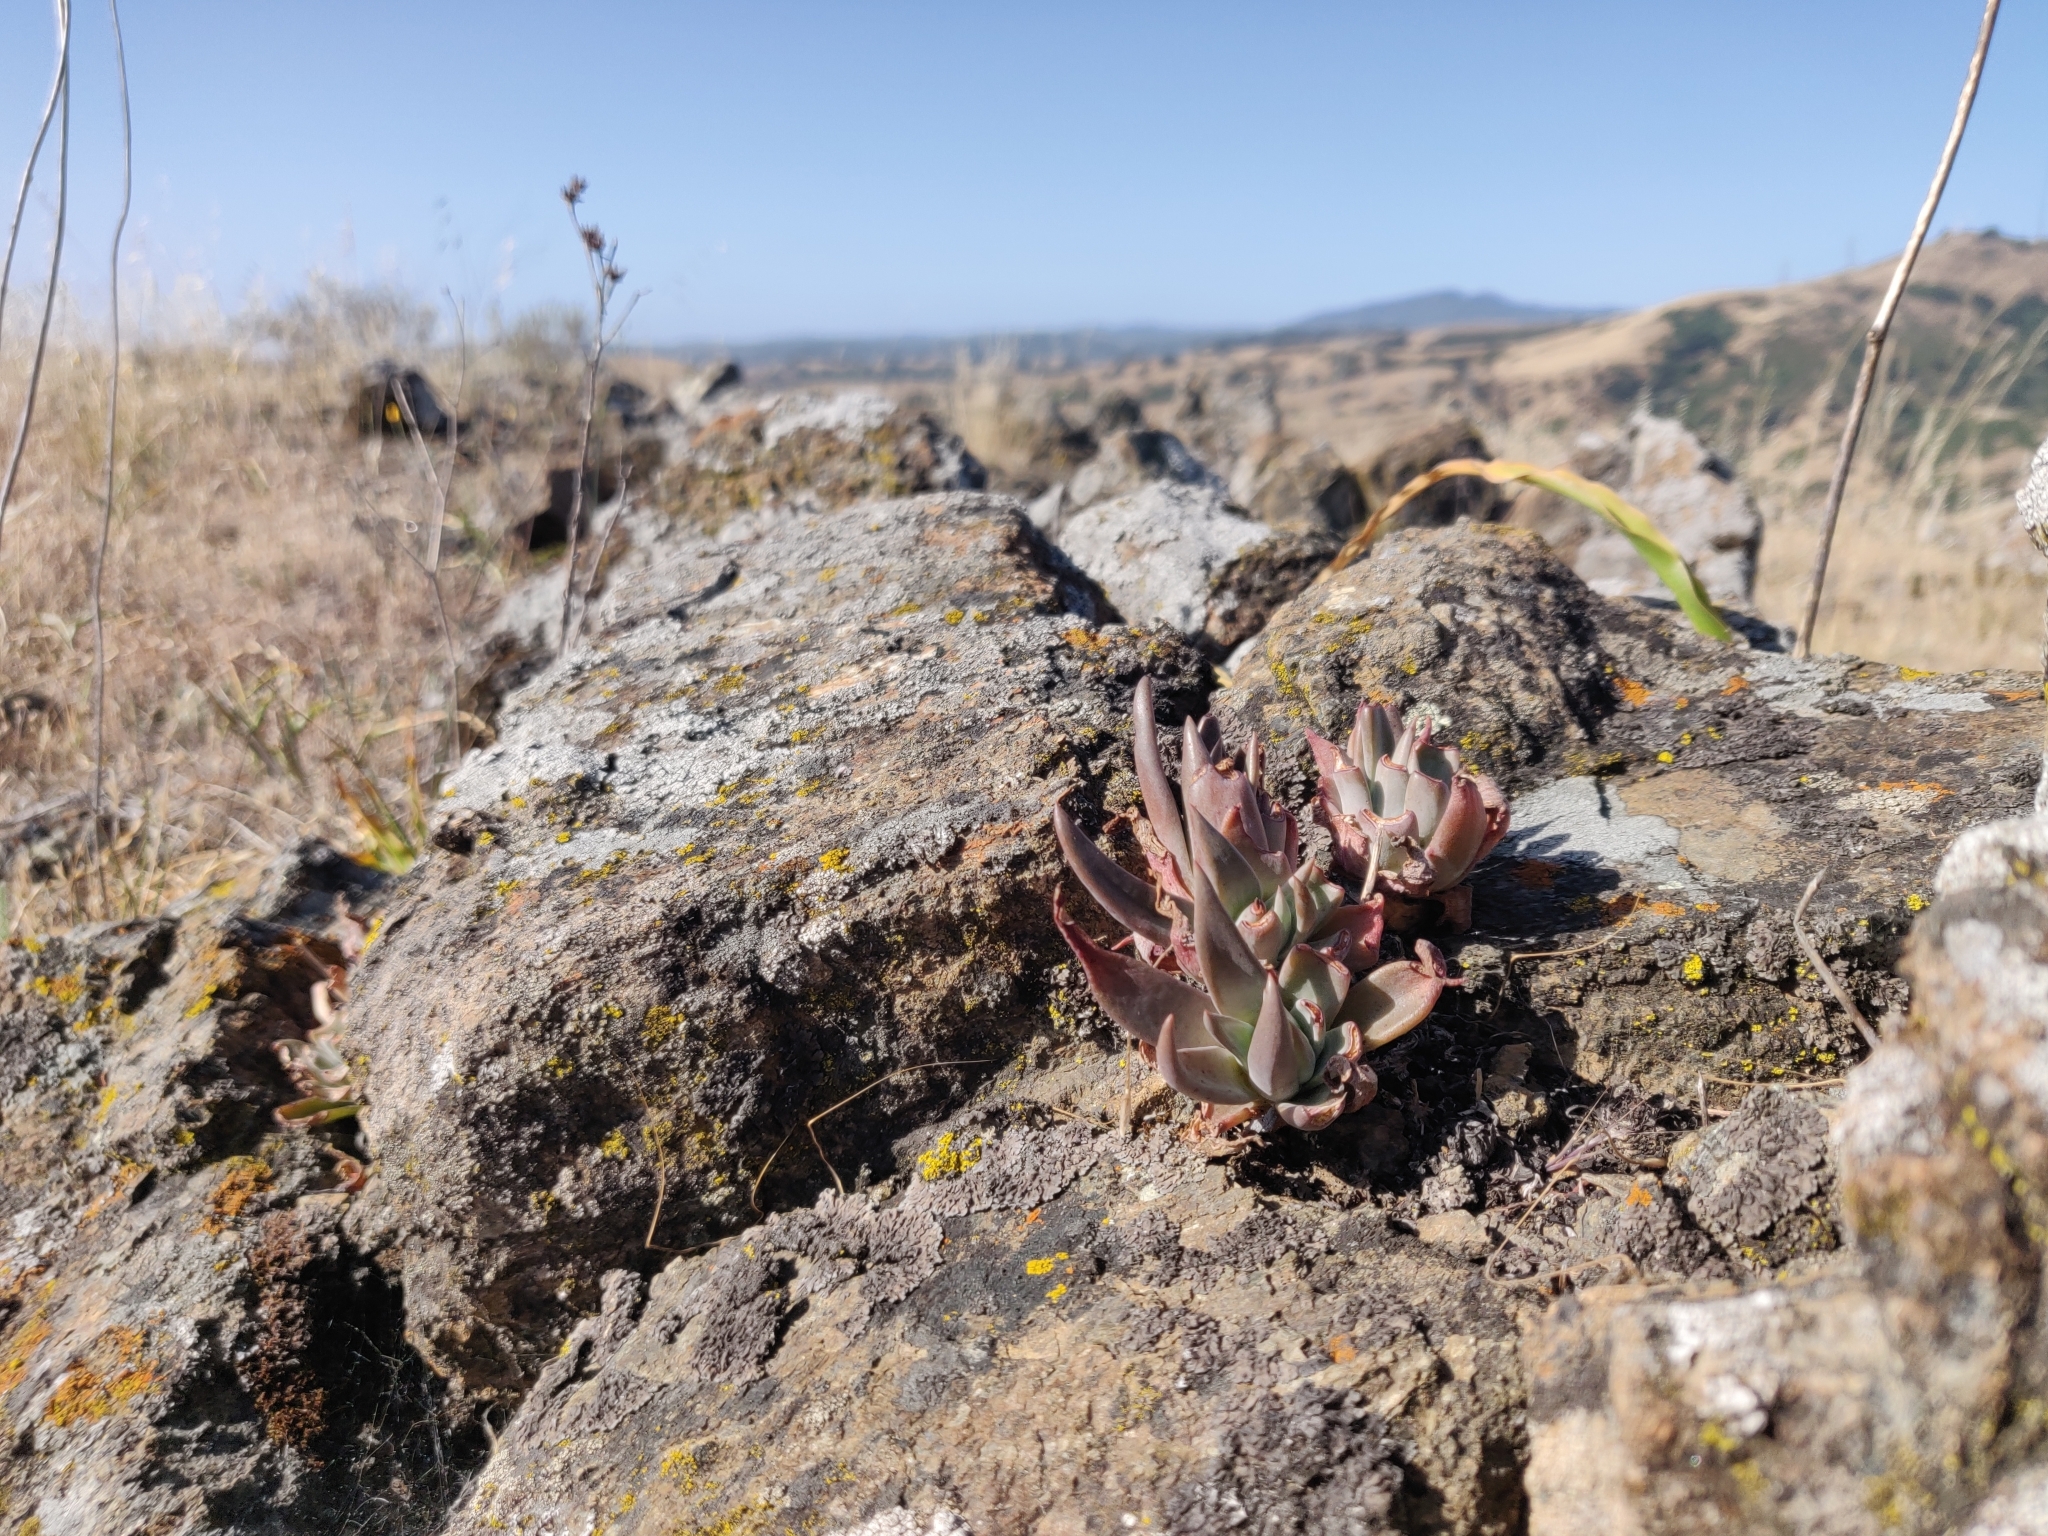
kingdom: Plantae
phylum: Tracheophyta
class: Magnoliopsida
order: Saxifragales
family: Crassulaceae
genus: Dudleya
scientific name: Dudleya abramsii
